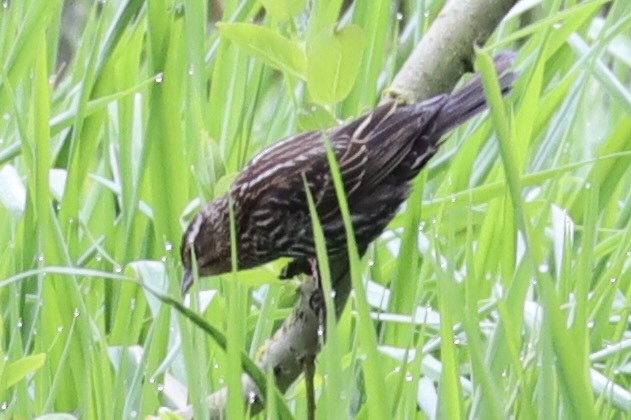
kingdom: Animalia
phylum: Chordata
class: Aves
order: Passeriformes
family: Icteridae
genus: Agelaius
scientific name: Agelaius phoeniceus
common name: Red-winged blackbird
